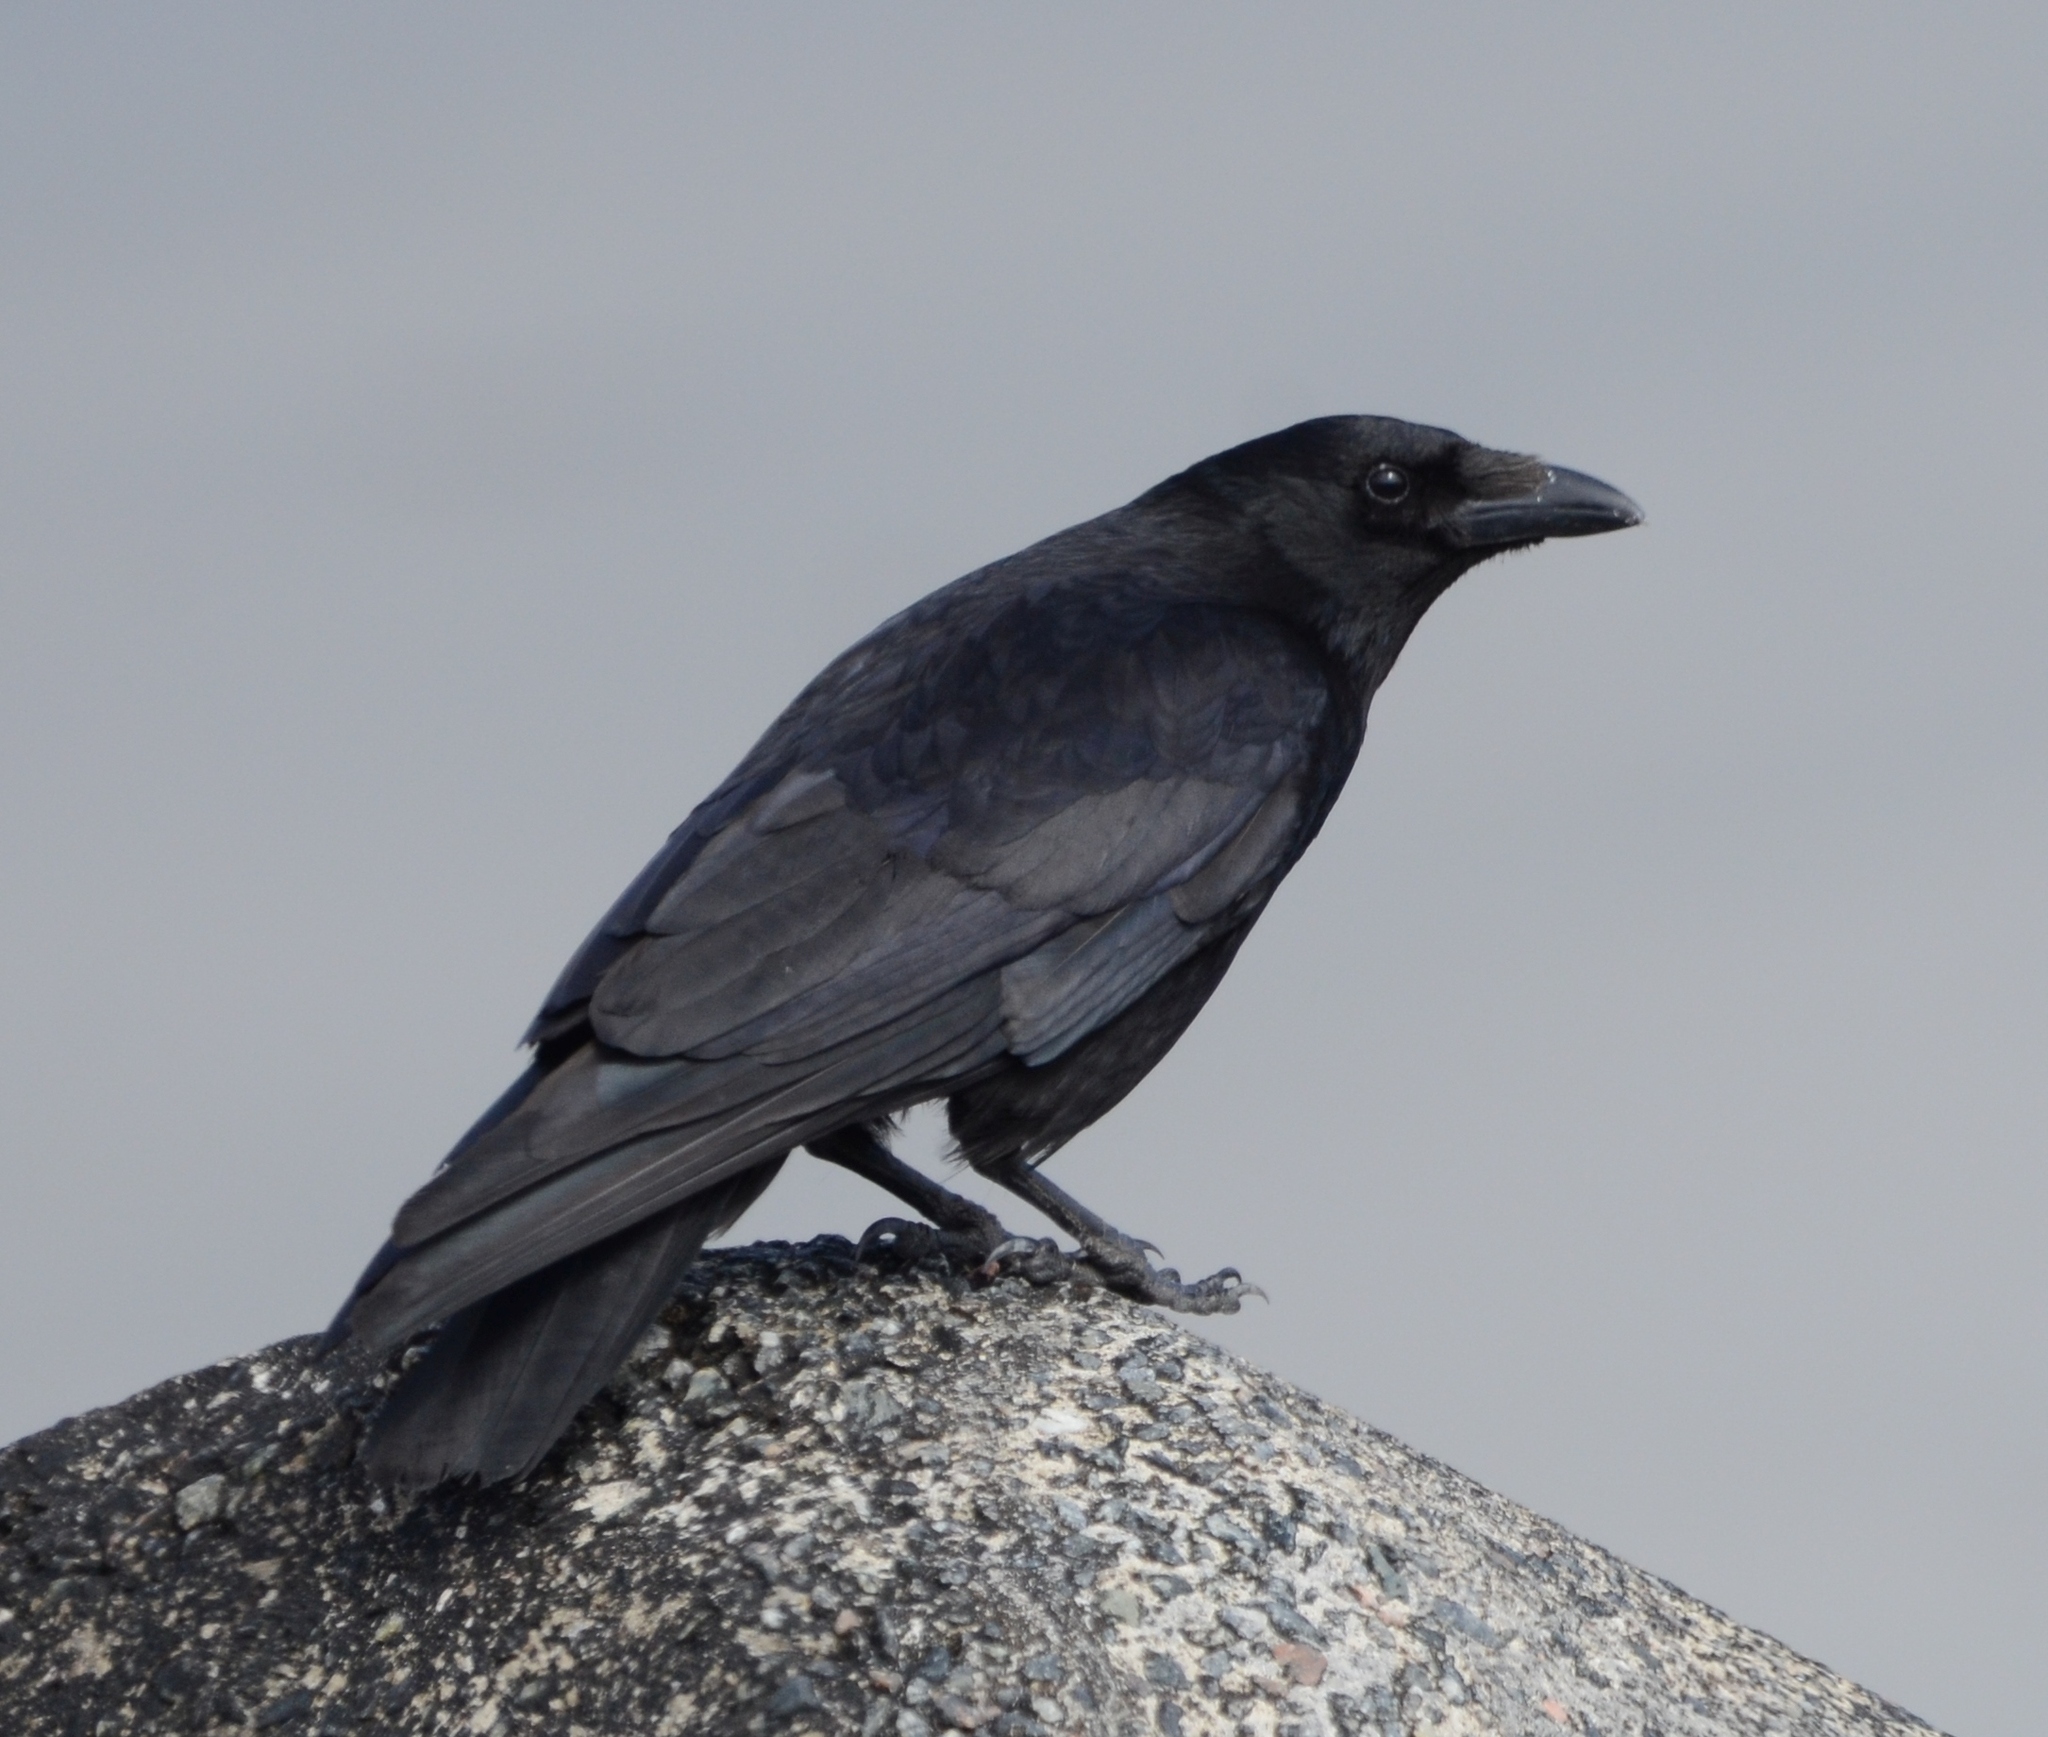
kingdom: Animalia
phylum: Chordata
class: Aves
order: Passeriformes
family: Corvidae
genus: Corvus
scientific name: Corvus corone
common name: Carrion crow
